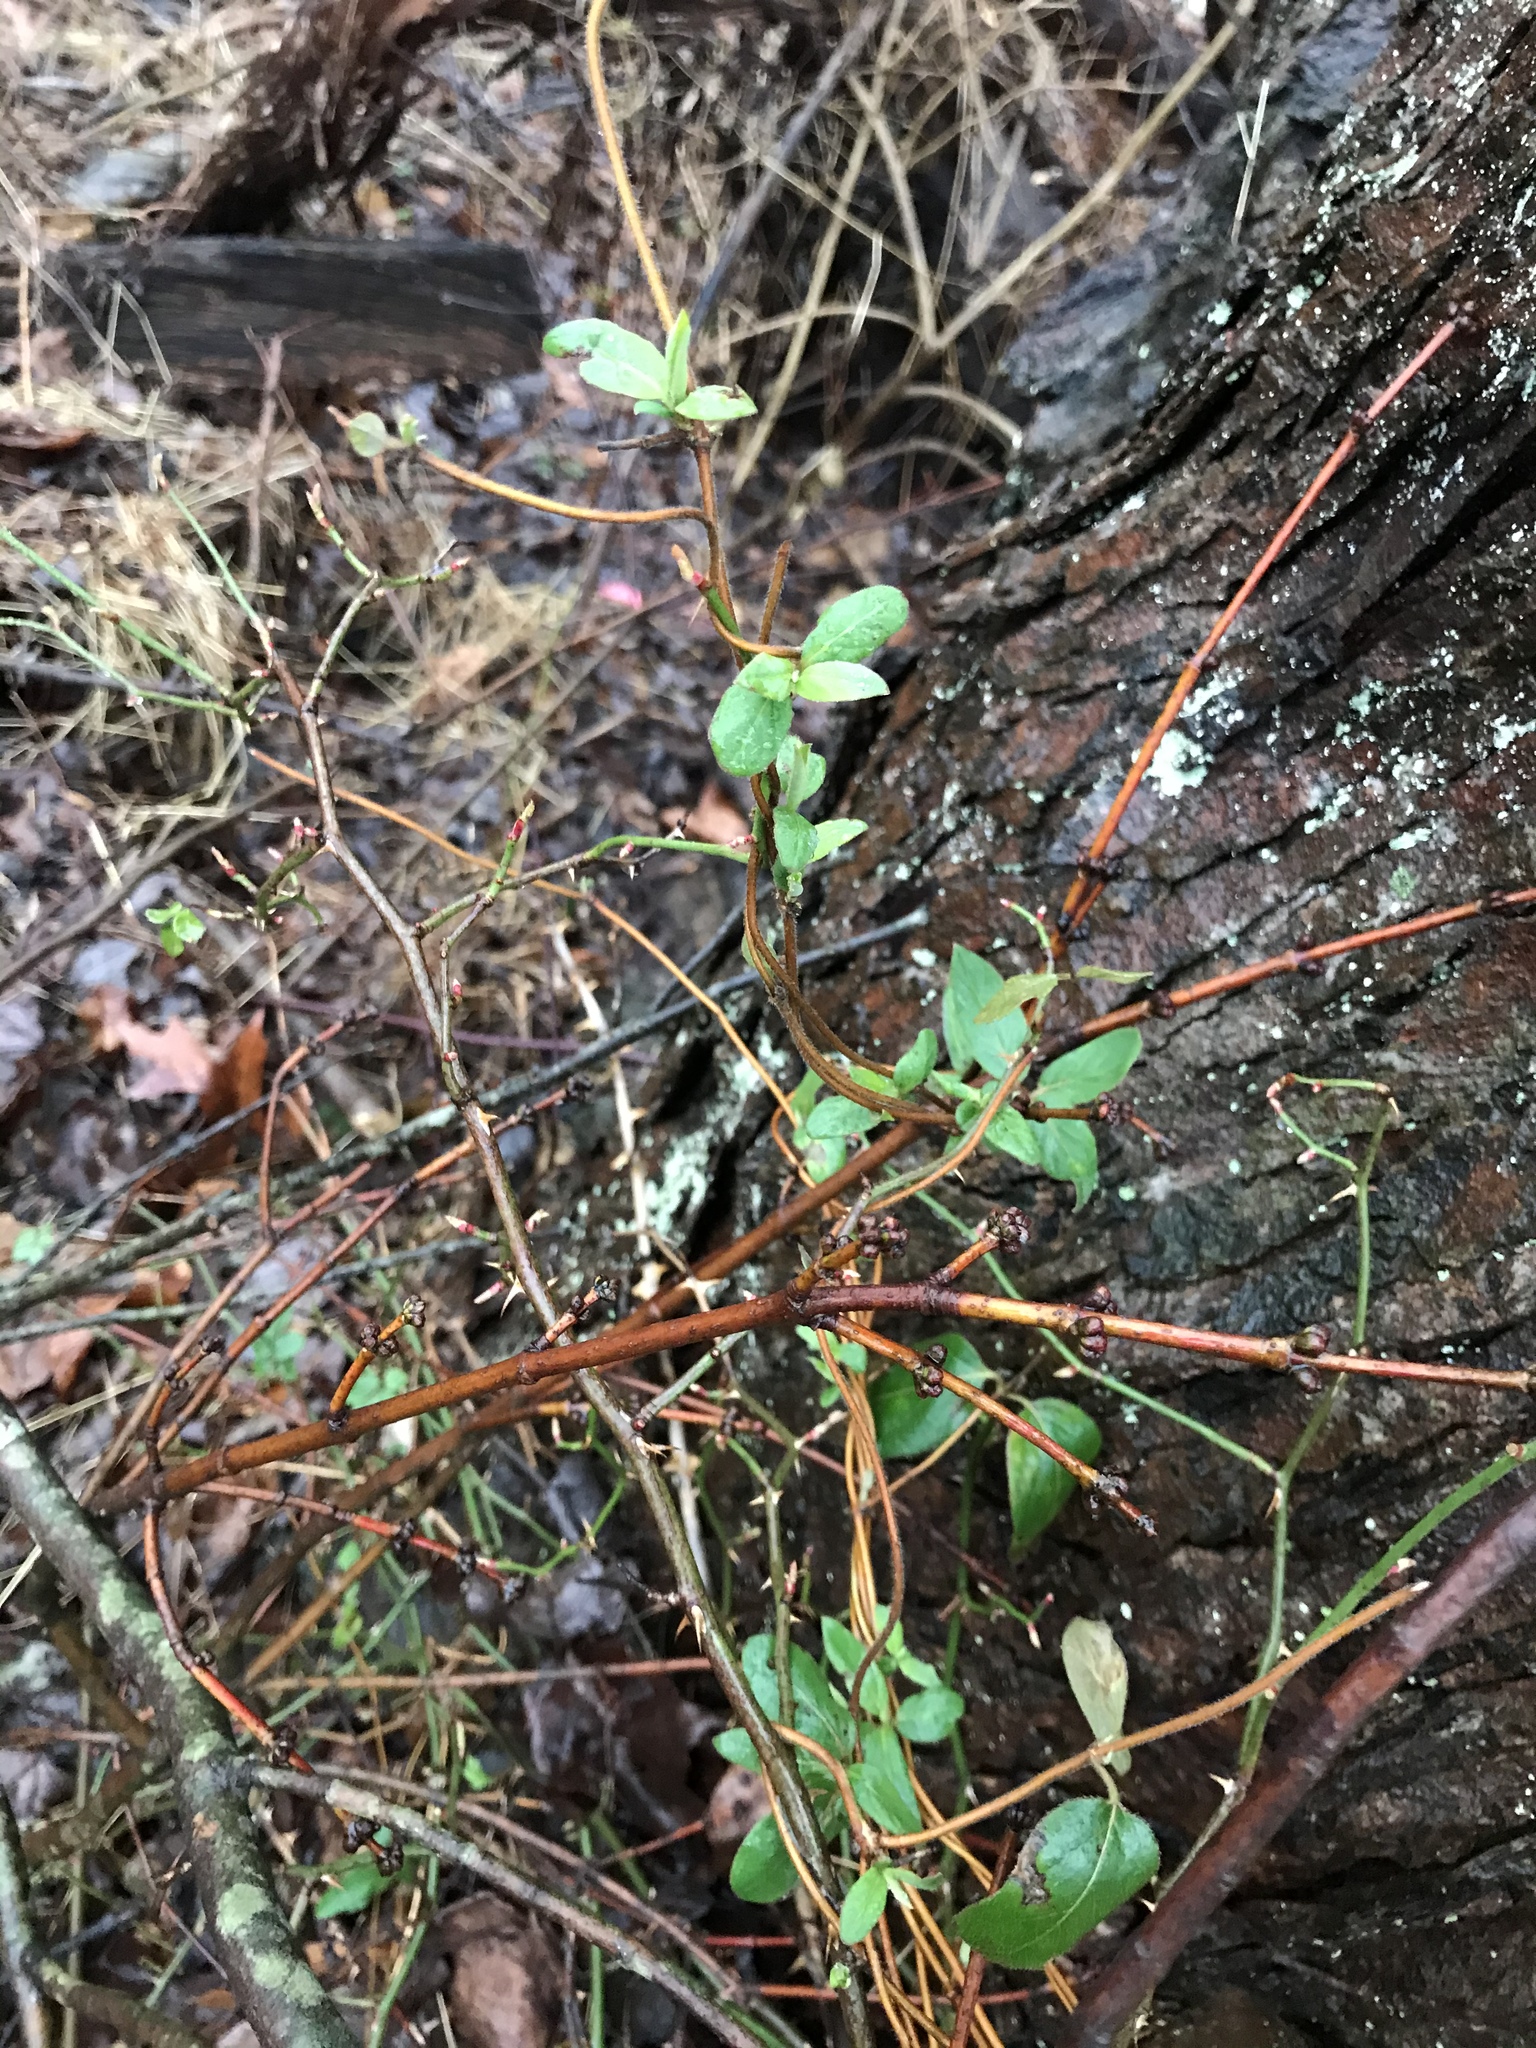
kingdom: Plantae
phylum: Tracheophyta
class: Magnoliopsida
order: Dipsacales
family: Caprifoliaceae
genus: Lonicera
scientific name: Lonicera japonica
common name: Japanese honeysuckle
